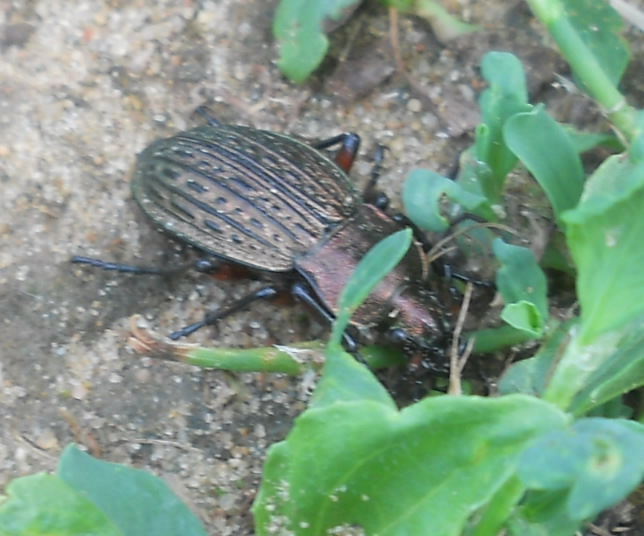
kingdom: Animalia
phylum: Arthropoda
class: Insecta
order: Coleoptera
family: Carabidae
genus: Carabus
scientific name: Carabus cancellatus
